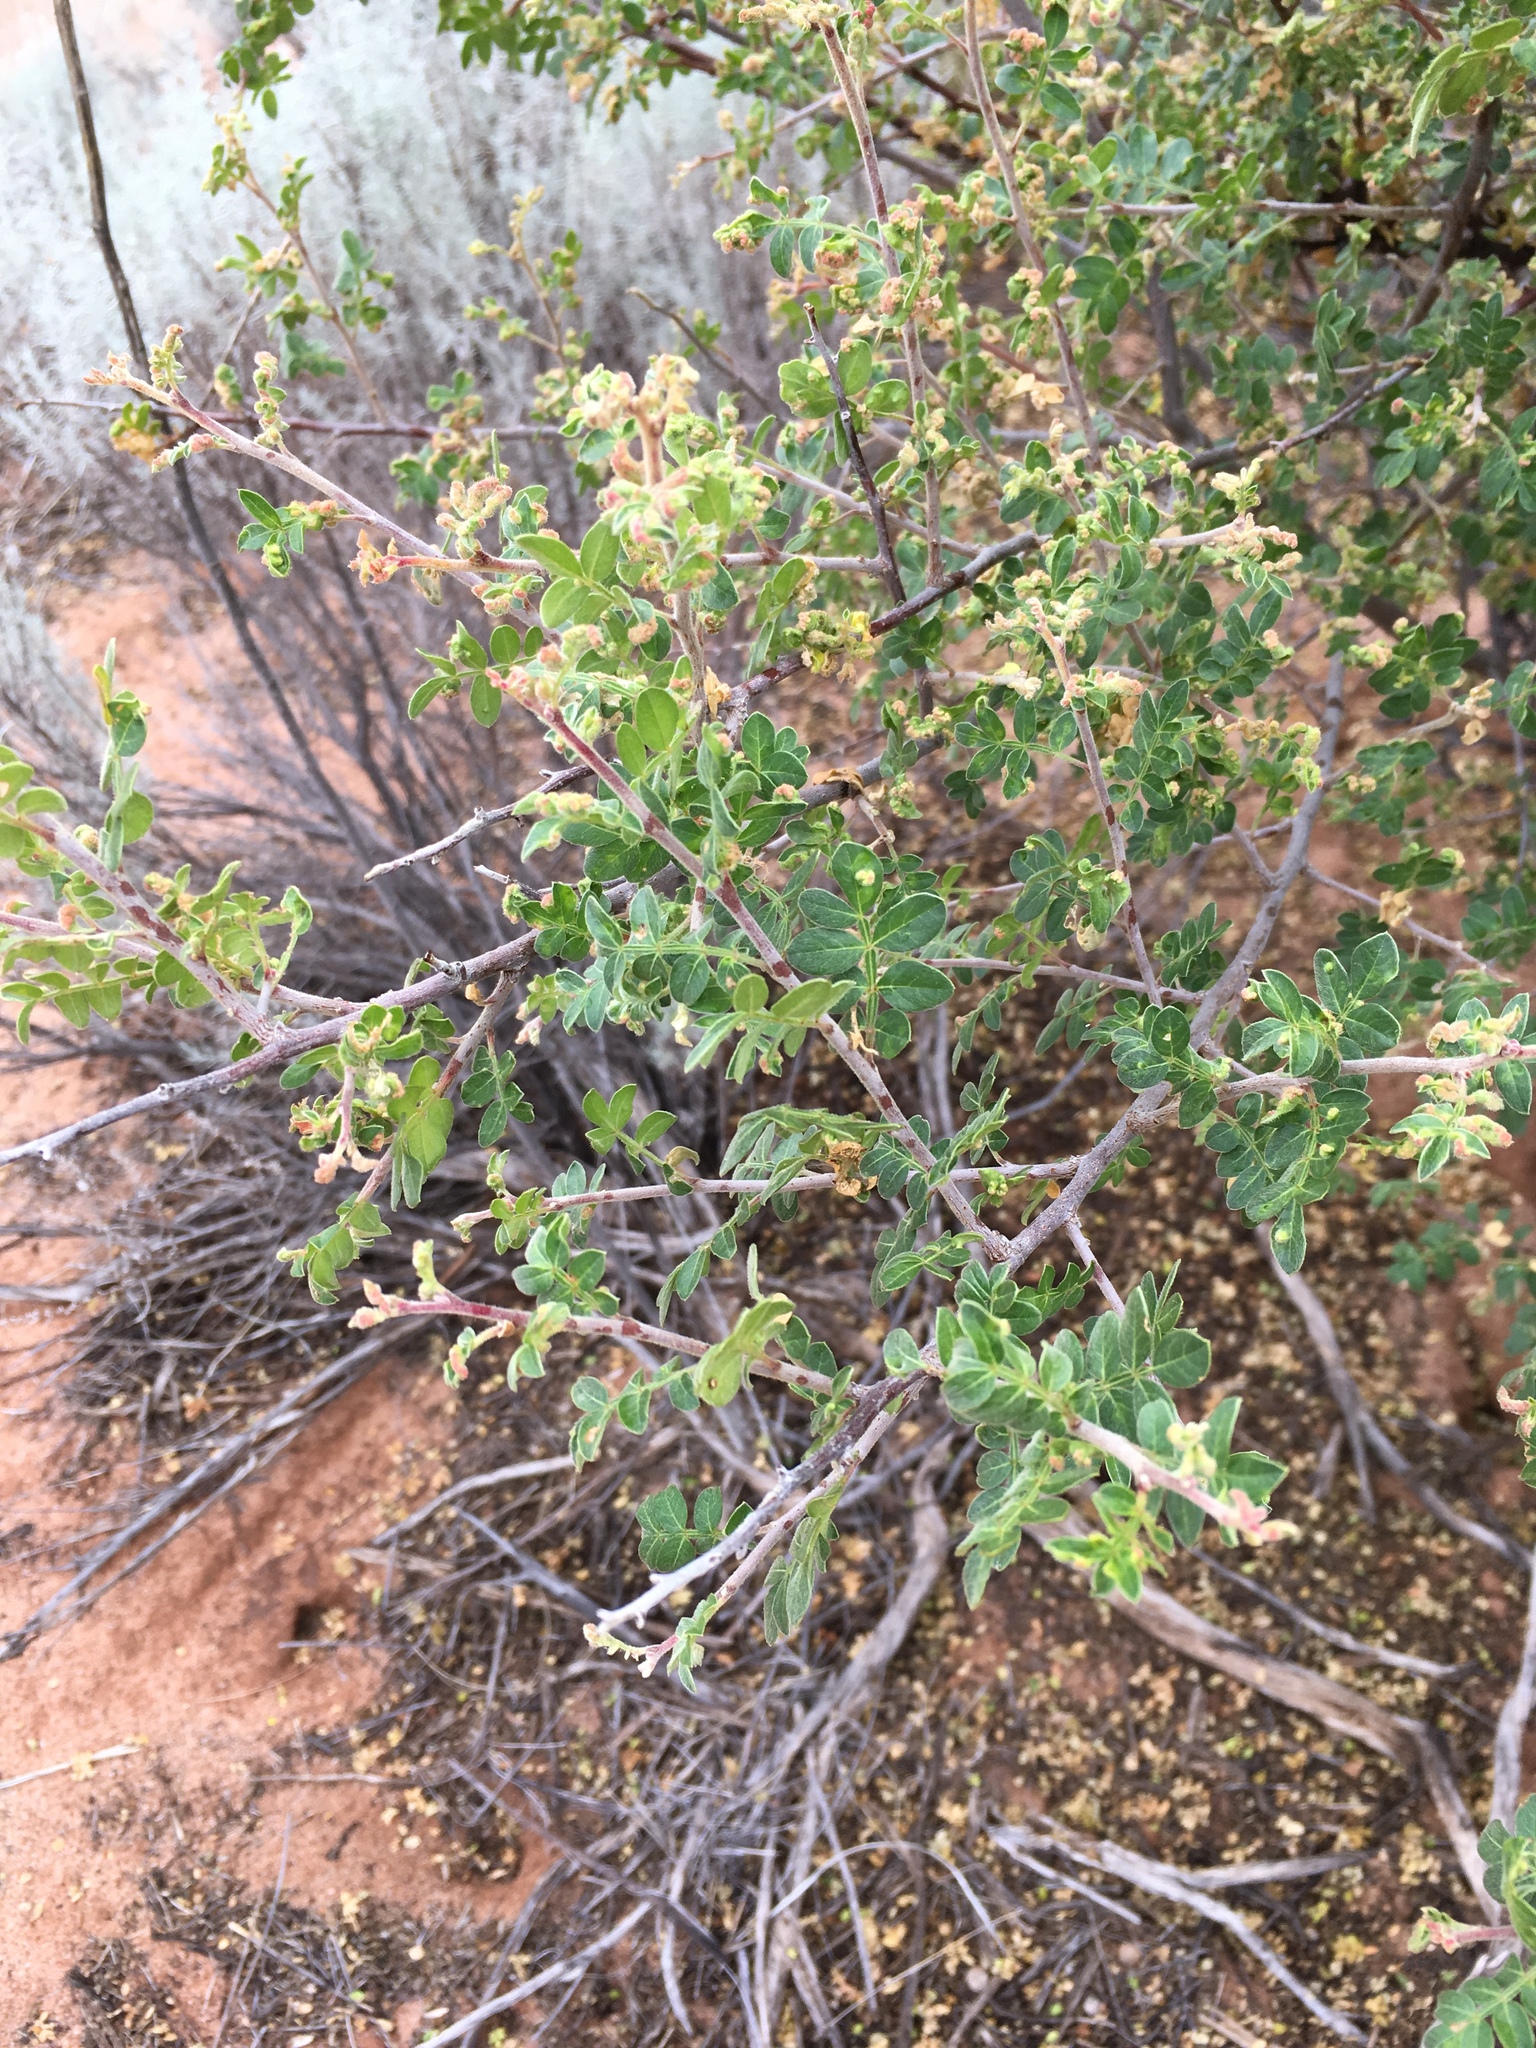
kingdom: Plantae
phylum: Tracheophyta
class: Magnoliopsida
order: Sapindales
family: Anacardiaceae
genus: Rhus
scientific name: Rhus microphylla
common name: Desert sumac
